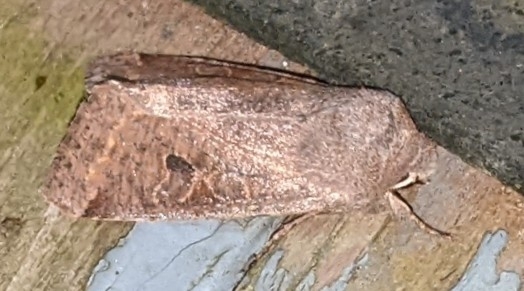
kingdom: Animalia
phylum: Arthropoda
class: Insecta
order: Lepidoptera
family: Noctuidae
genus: Orthosia
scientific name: Orthosia hibisci
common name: Green fruitworm
